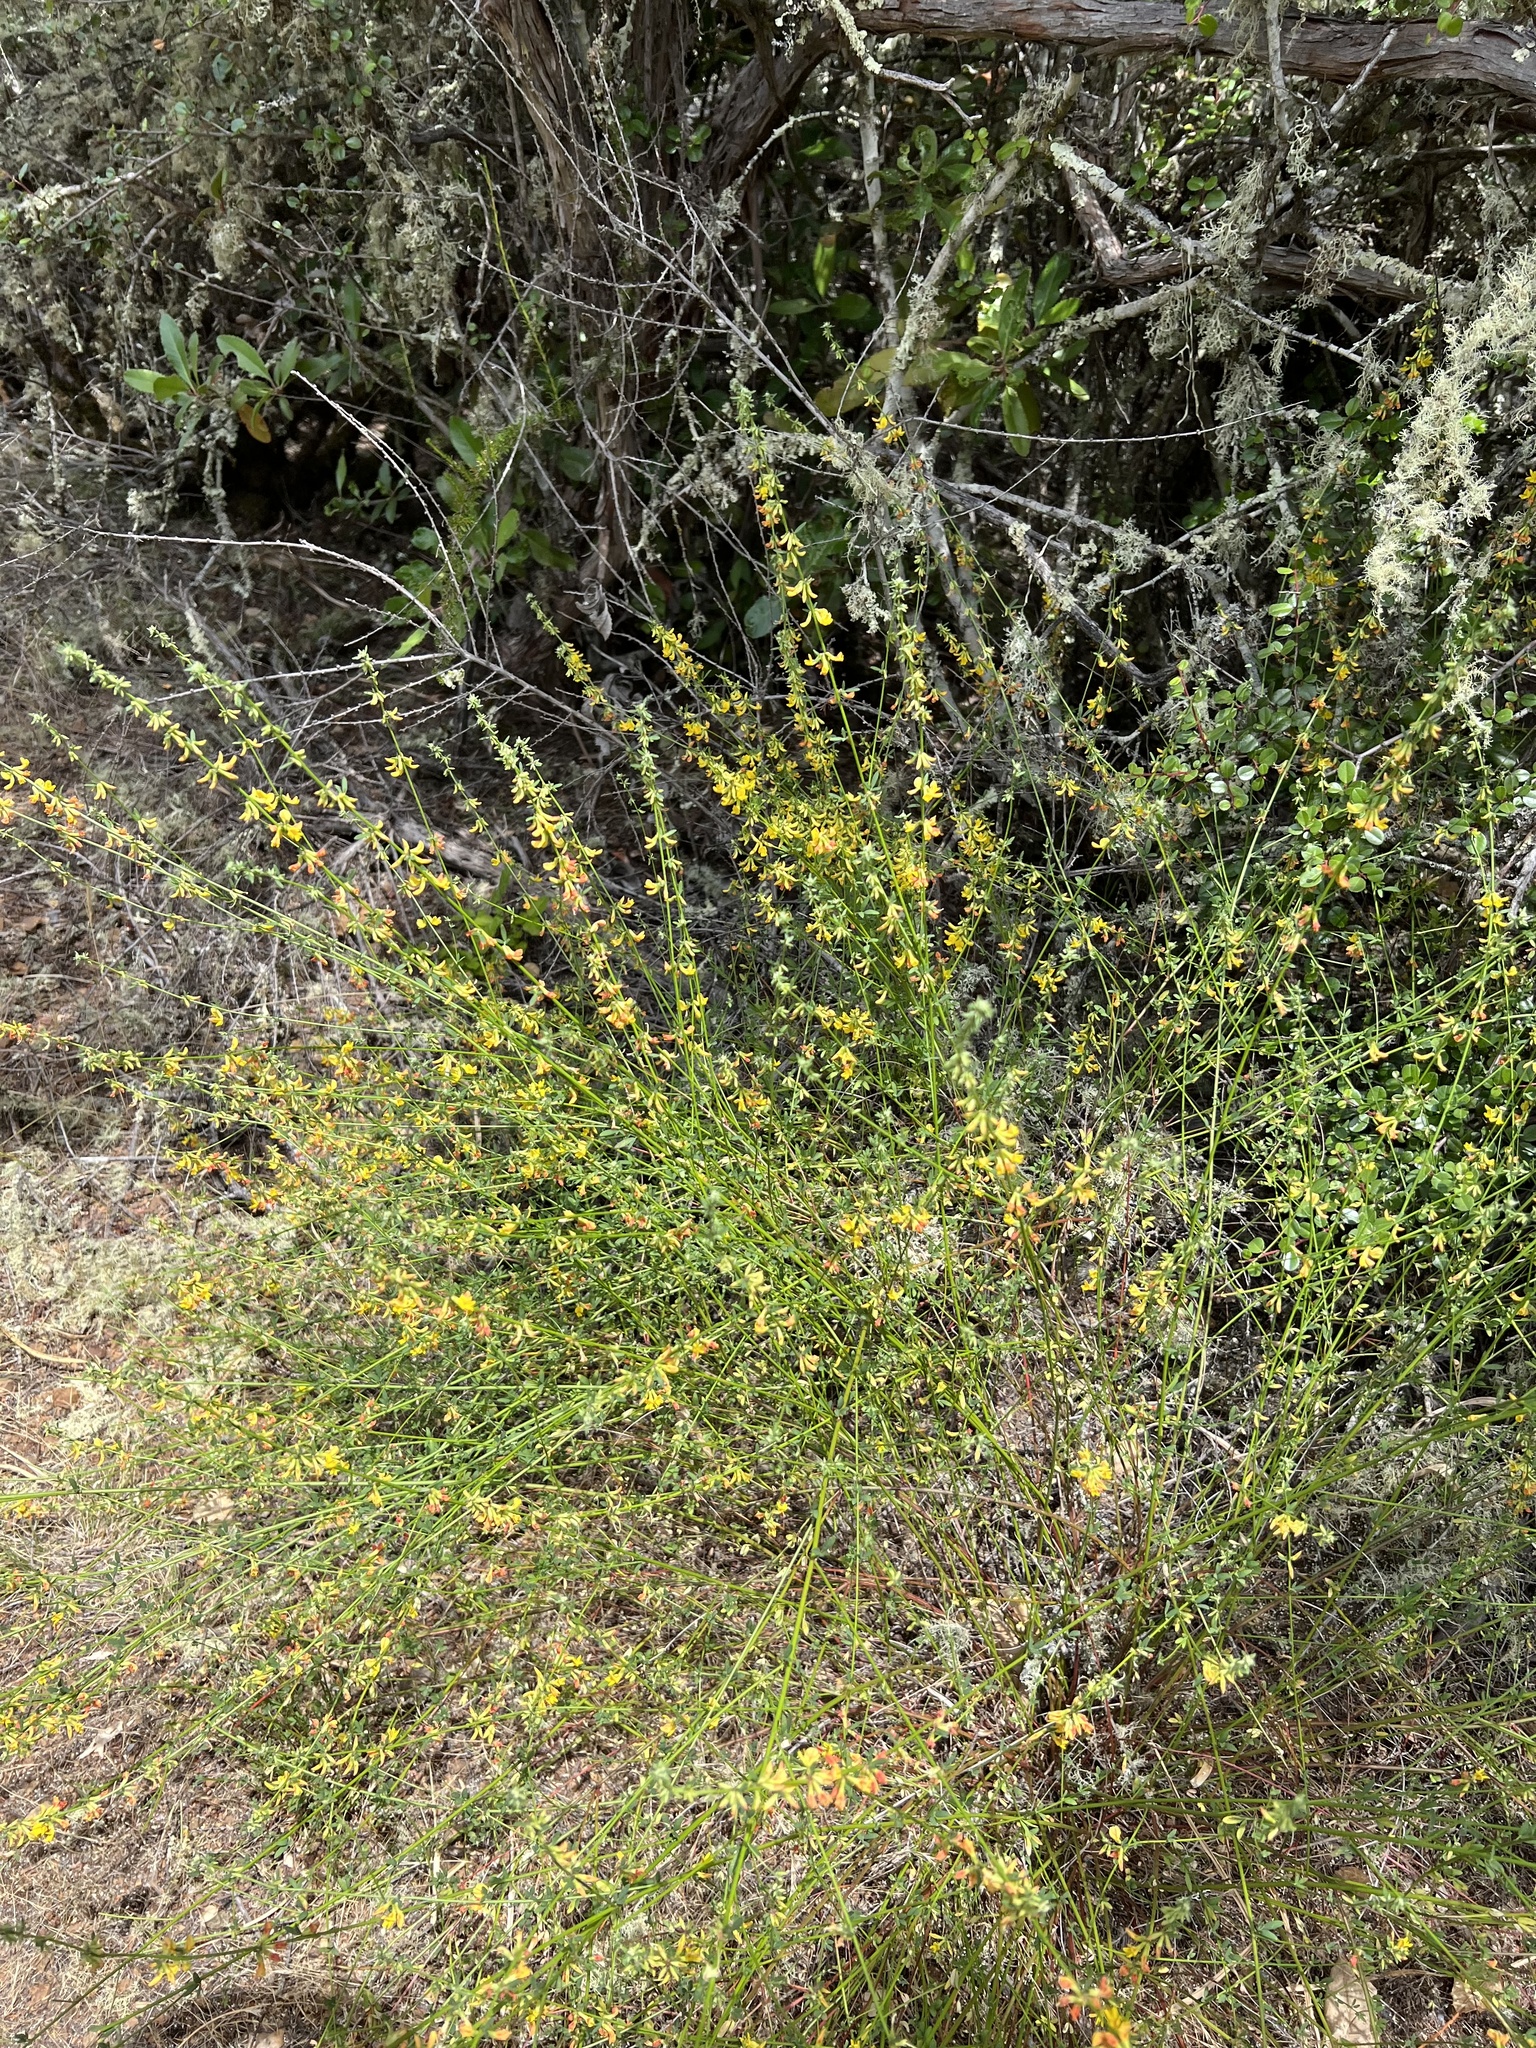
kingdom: Plantae
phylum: Tracheophyta
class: Magnoliopsida
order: Fabales
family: Fabaceae
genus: Acmispon
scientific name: Acmispon glaber
